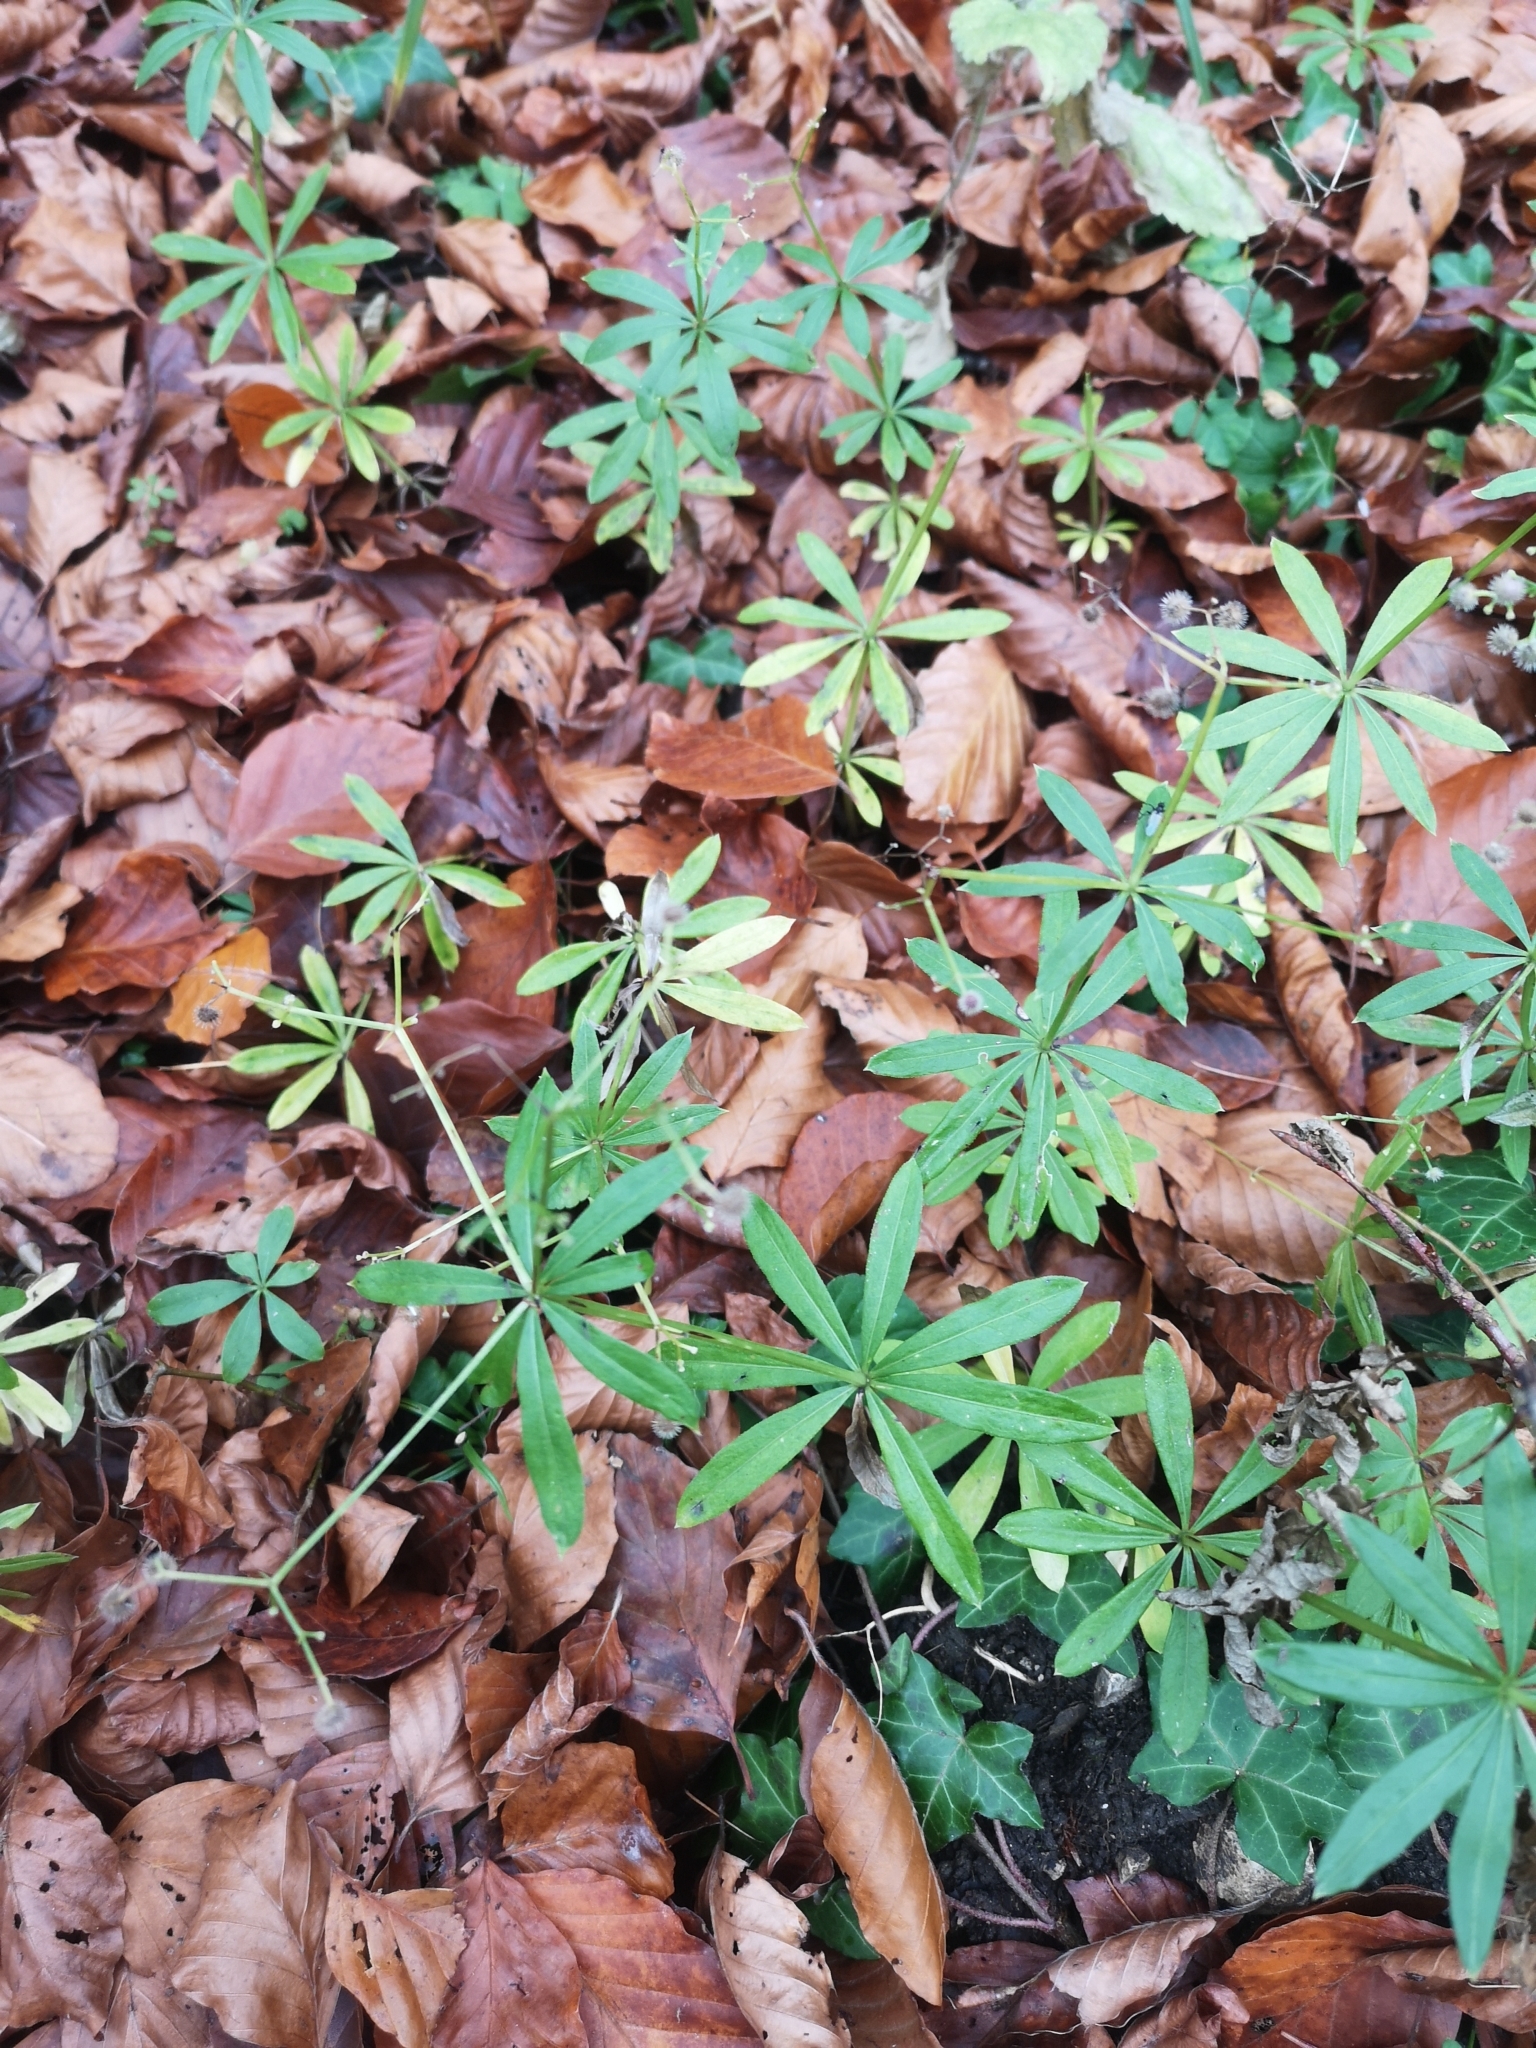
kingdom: Plantae
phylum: Tracheophyta
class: Magnoliopsida
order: Gentianales
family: Rubiaceae
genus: Galium
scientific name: Galium odoratum
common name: Sweet woodruff
